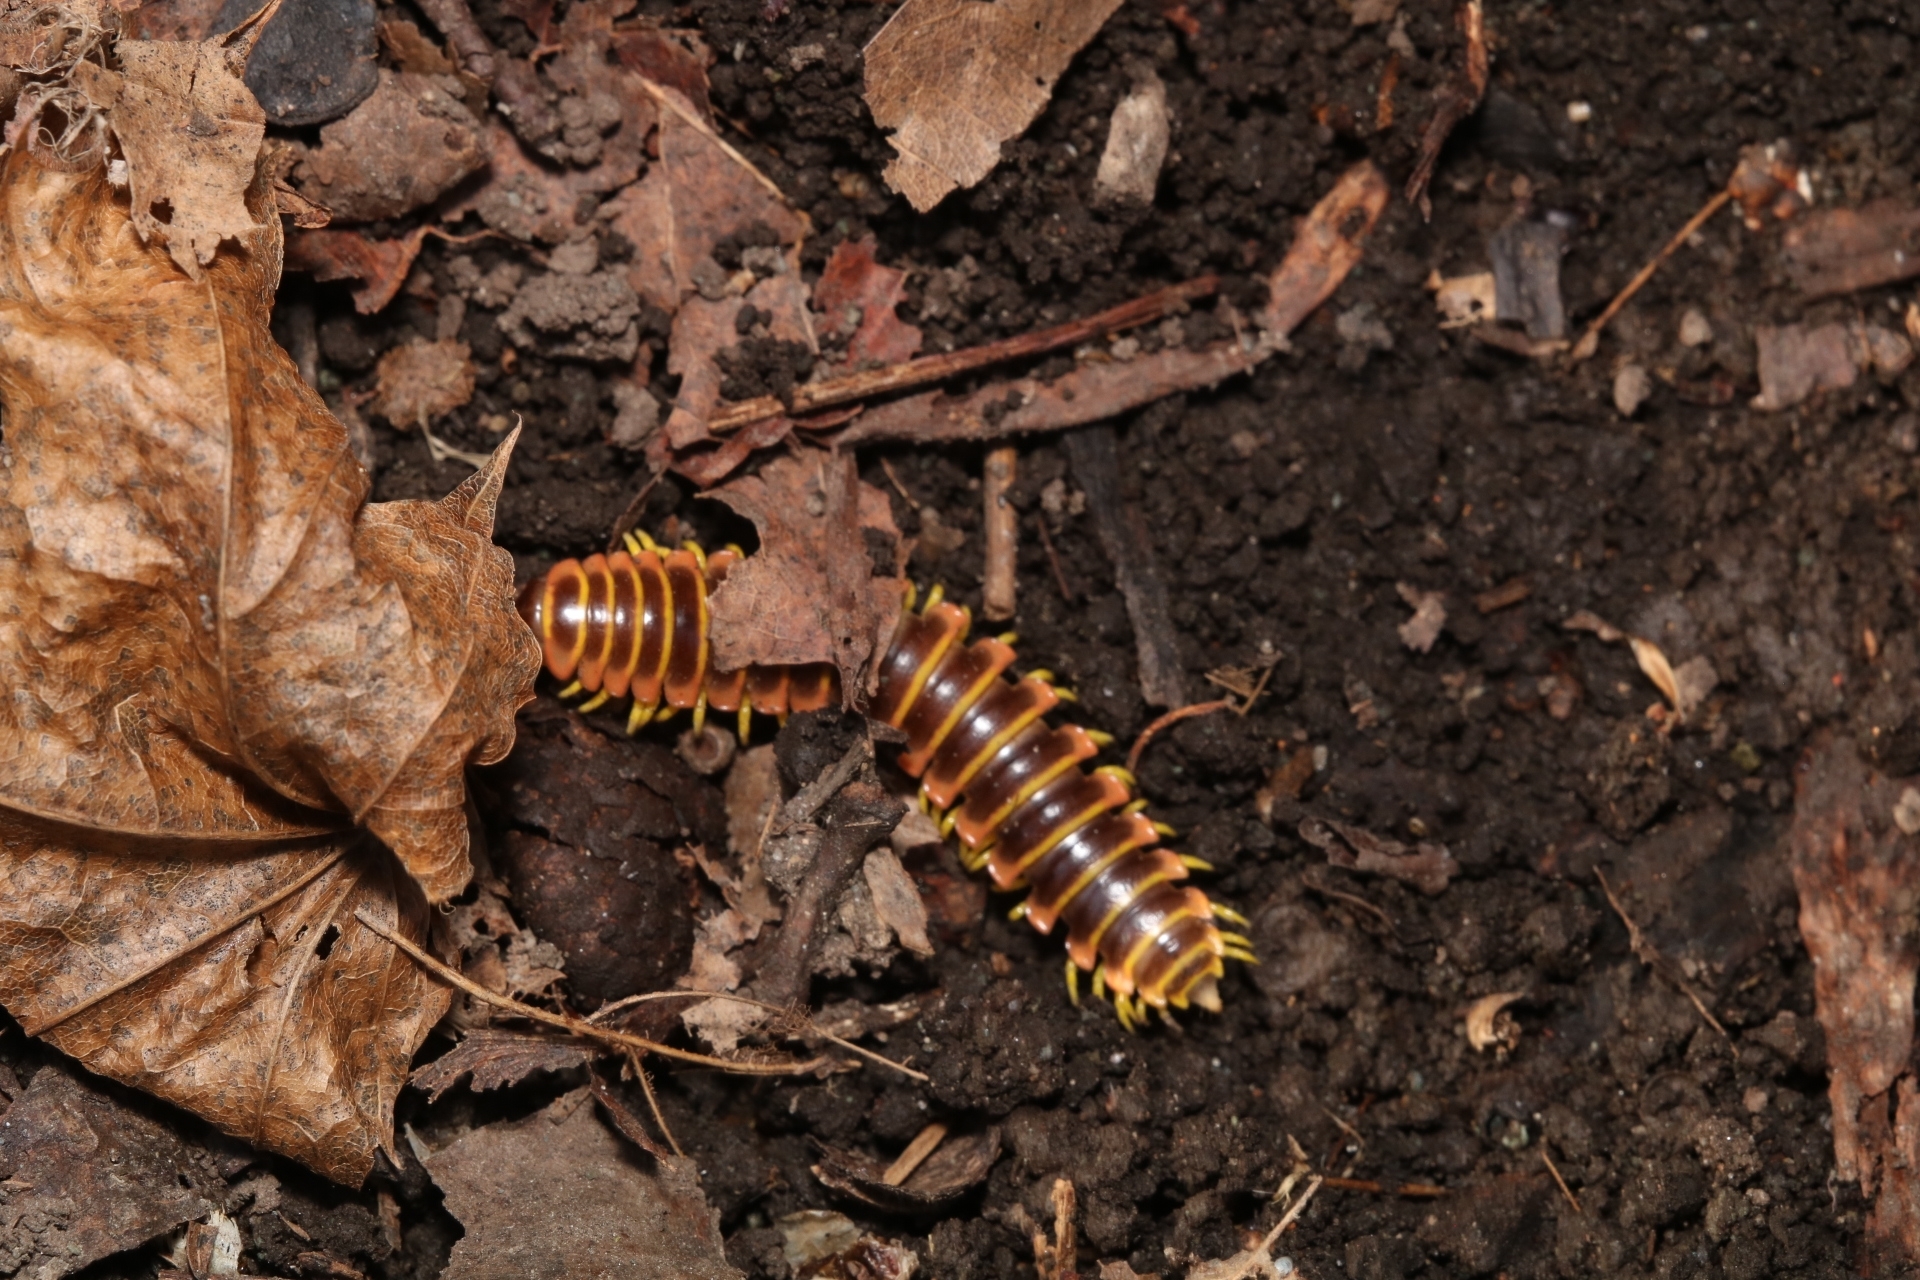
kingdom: Animalia
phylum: Arthropoda
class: Diplopoda
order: Polydesmida
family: Xystodesmidae
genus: Apheloria
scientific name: Apheloria virginiensis
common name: Black-and-gold flat millipede
